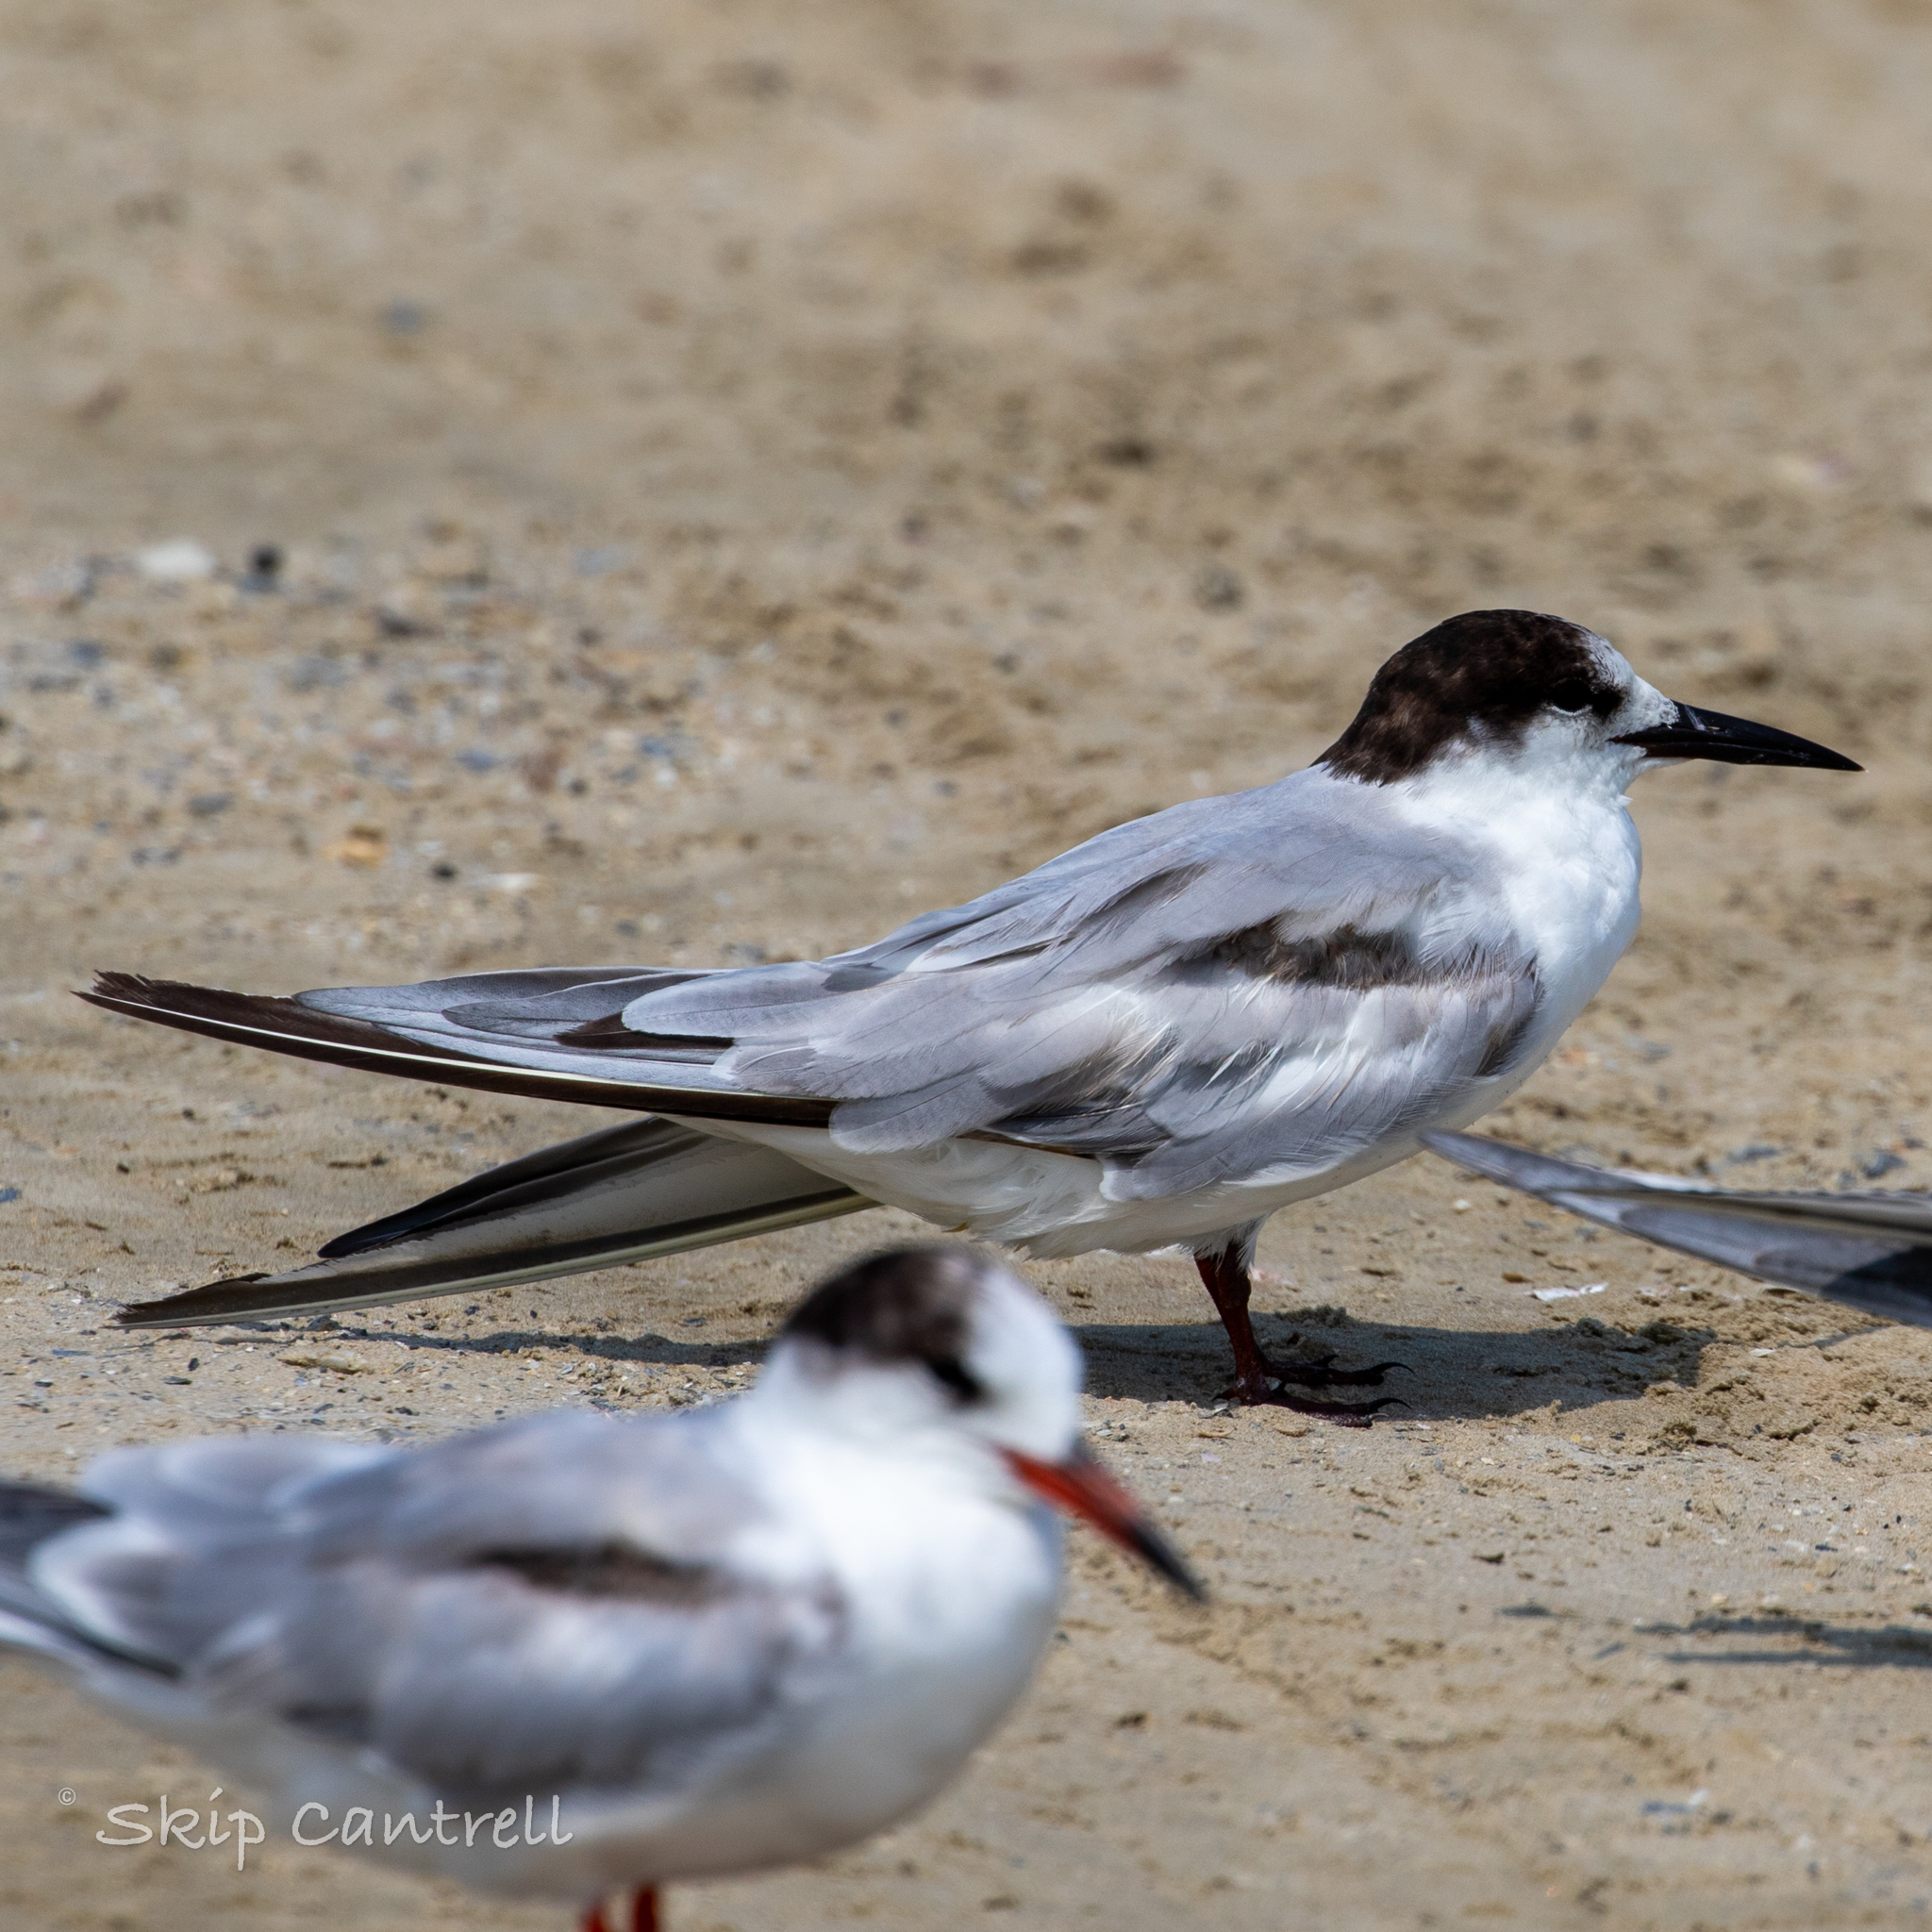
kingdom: Animalia
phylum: Chordata
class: Aves
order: Charadriiformes
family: Laridae
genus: Sterna
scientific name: Sterna hirundo
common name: Common tern
